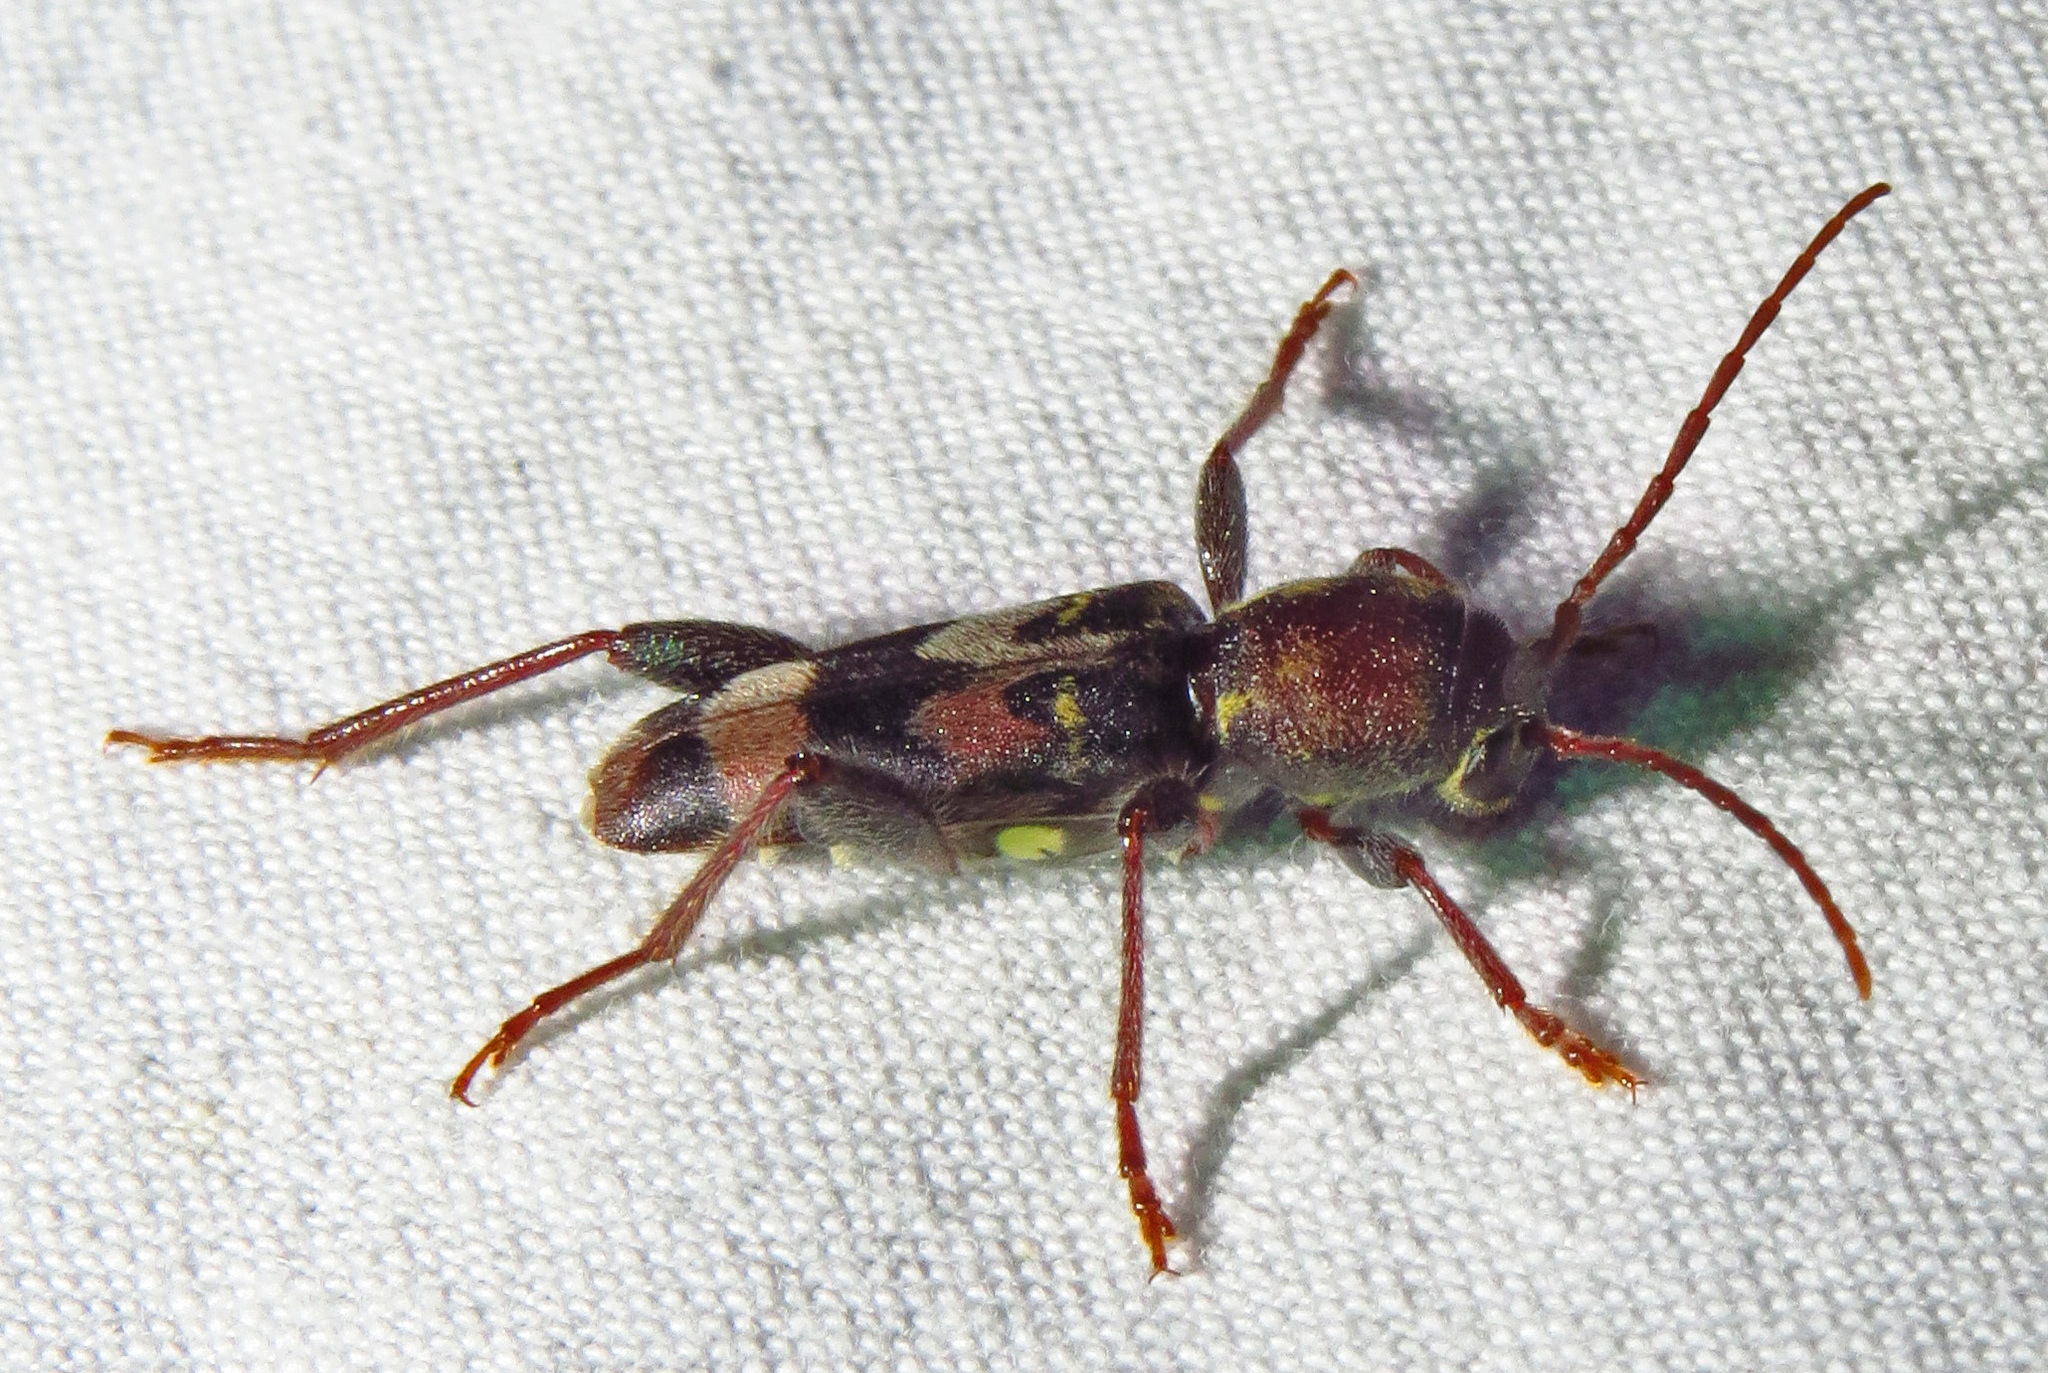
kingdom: Animalia
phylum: Arthropoda
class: Insecta
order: Coleoptera
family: Cerambycidae
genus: Xylotrechus
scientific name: Xylotrechus colonus
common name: Long-horned beetle
